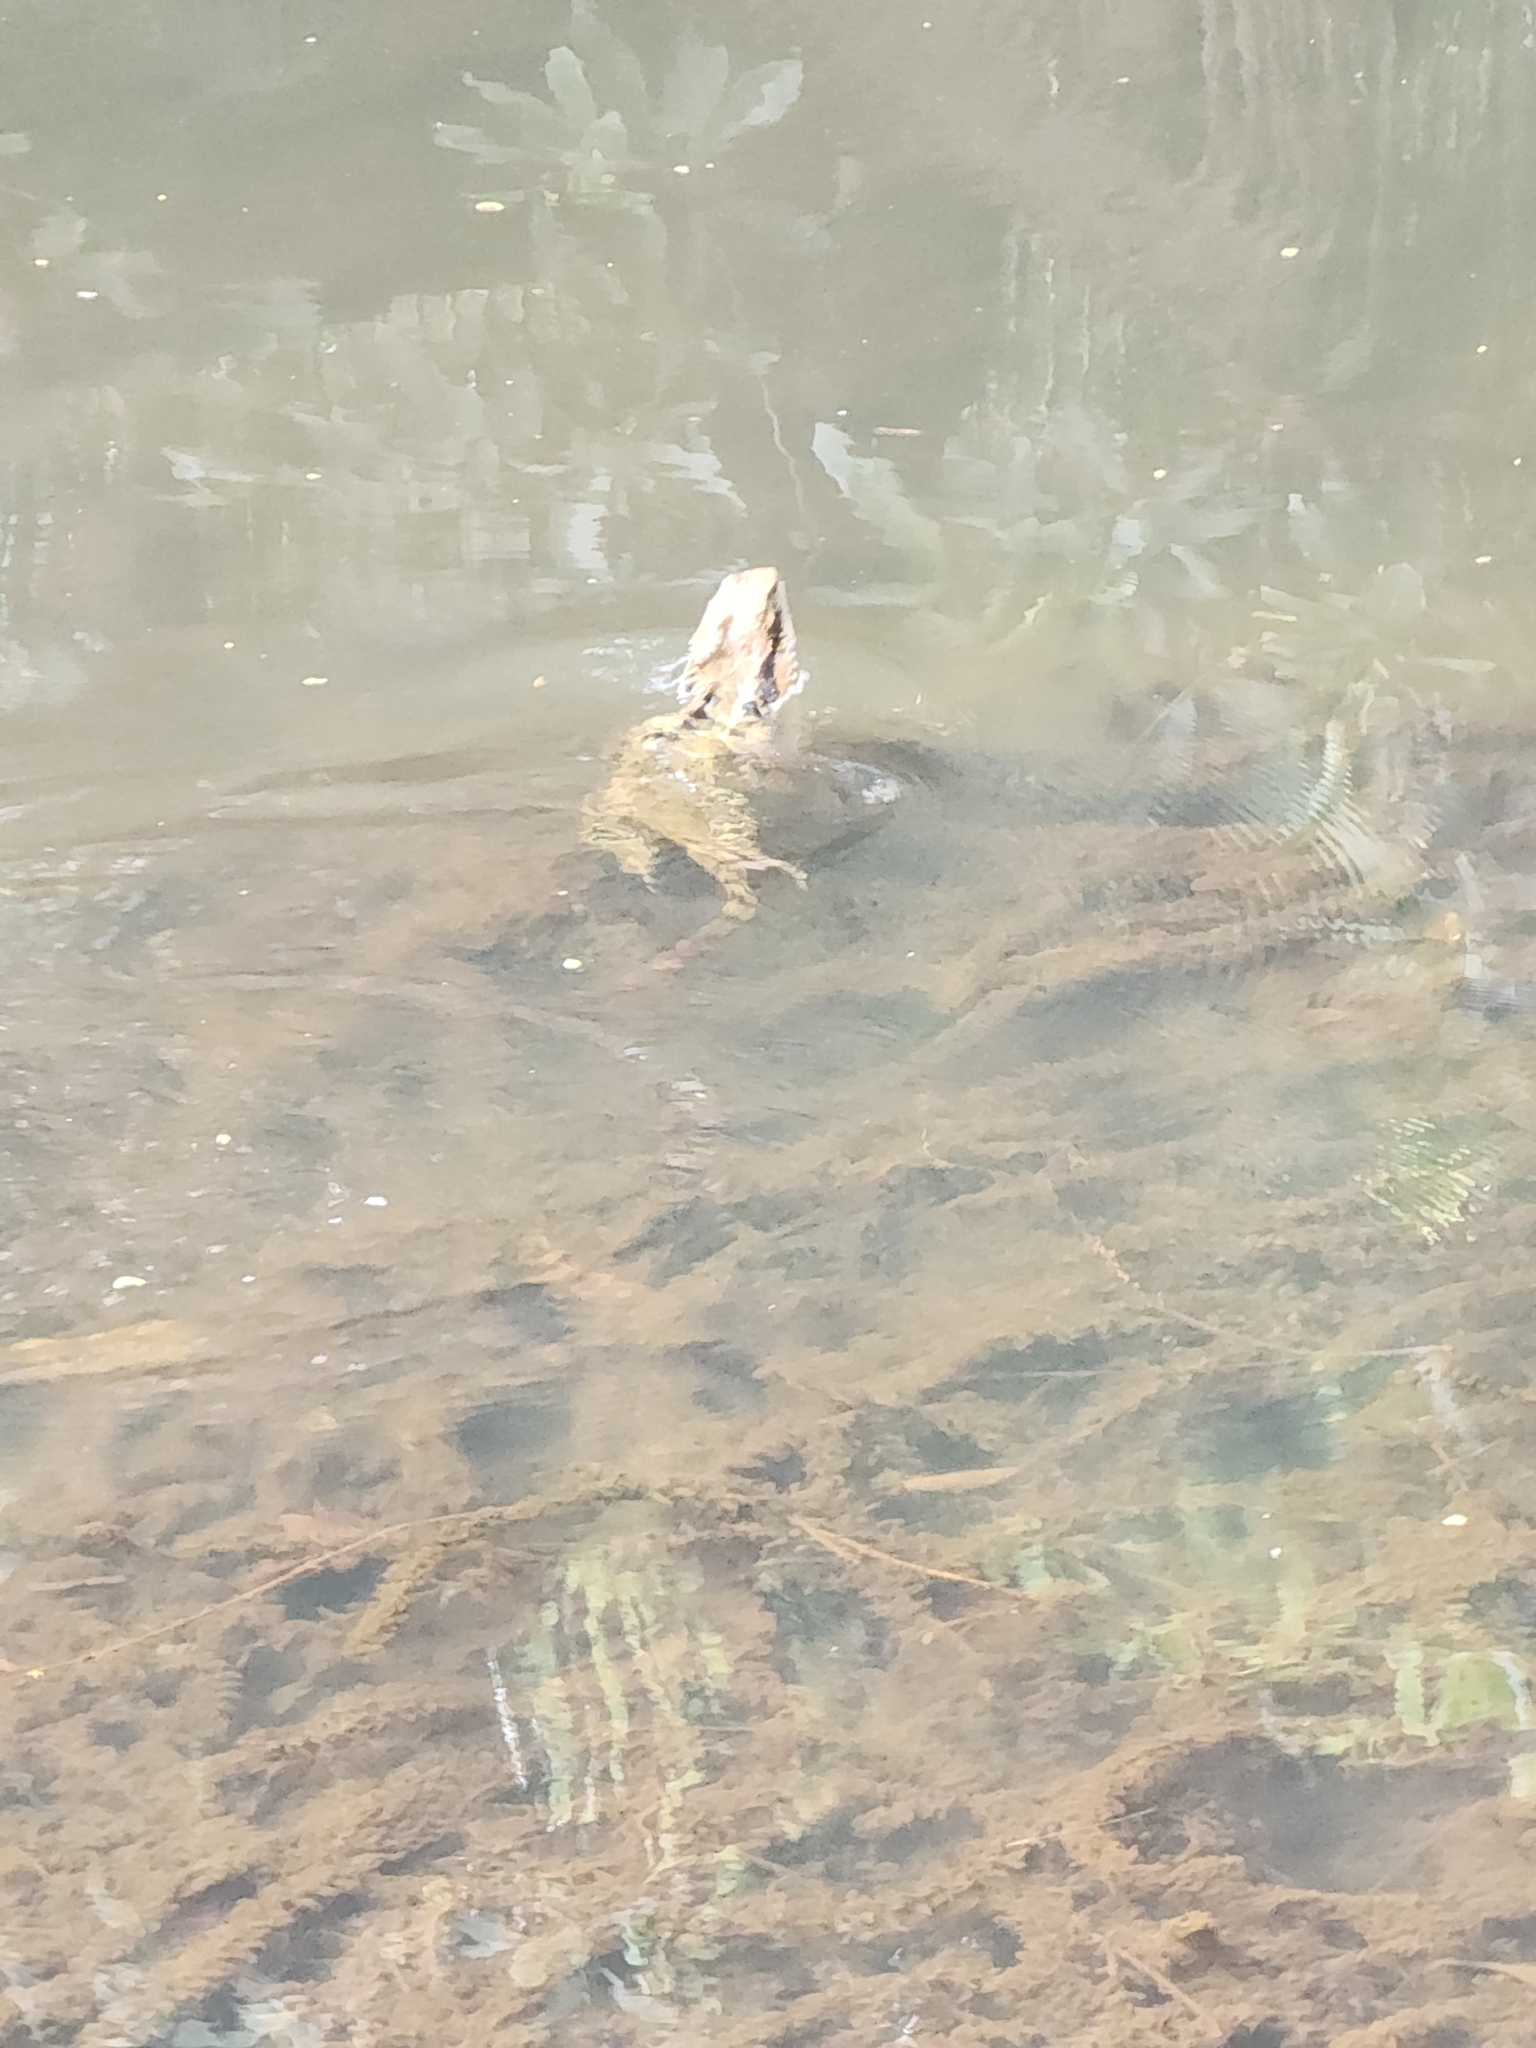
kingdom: Animalia
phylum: Chordata
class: Squamata
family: Agamidae
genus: Intellagama
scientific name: Intellagama lesueurii
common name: Eastern water dragon
